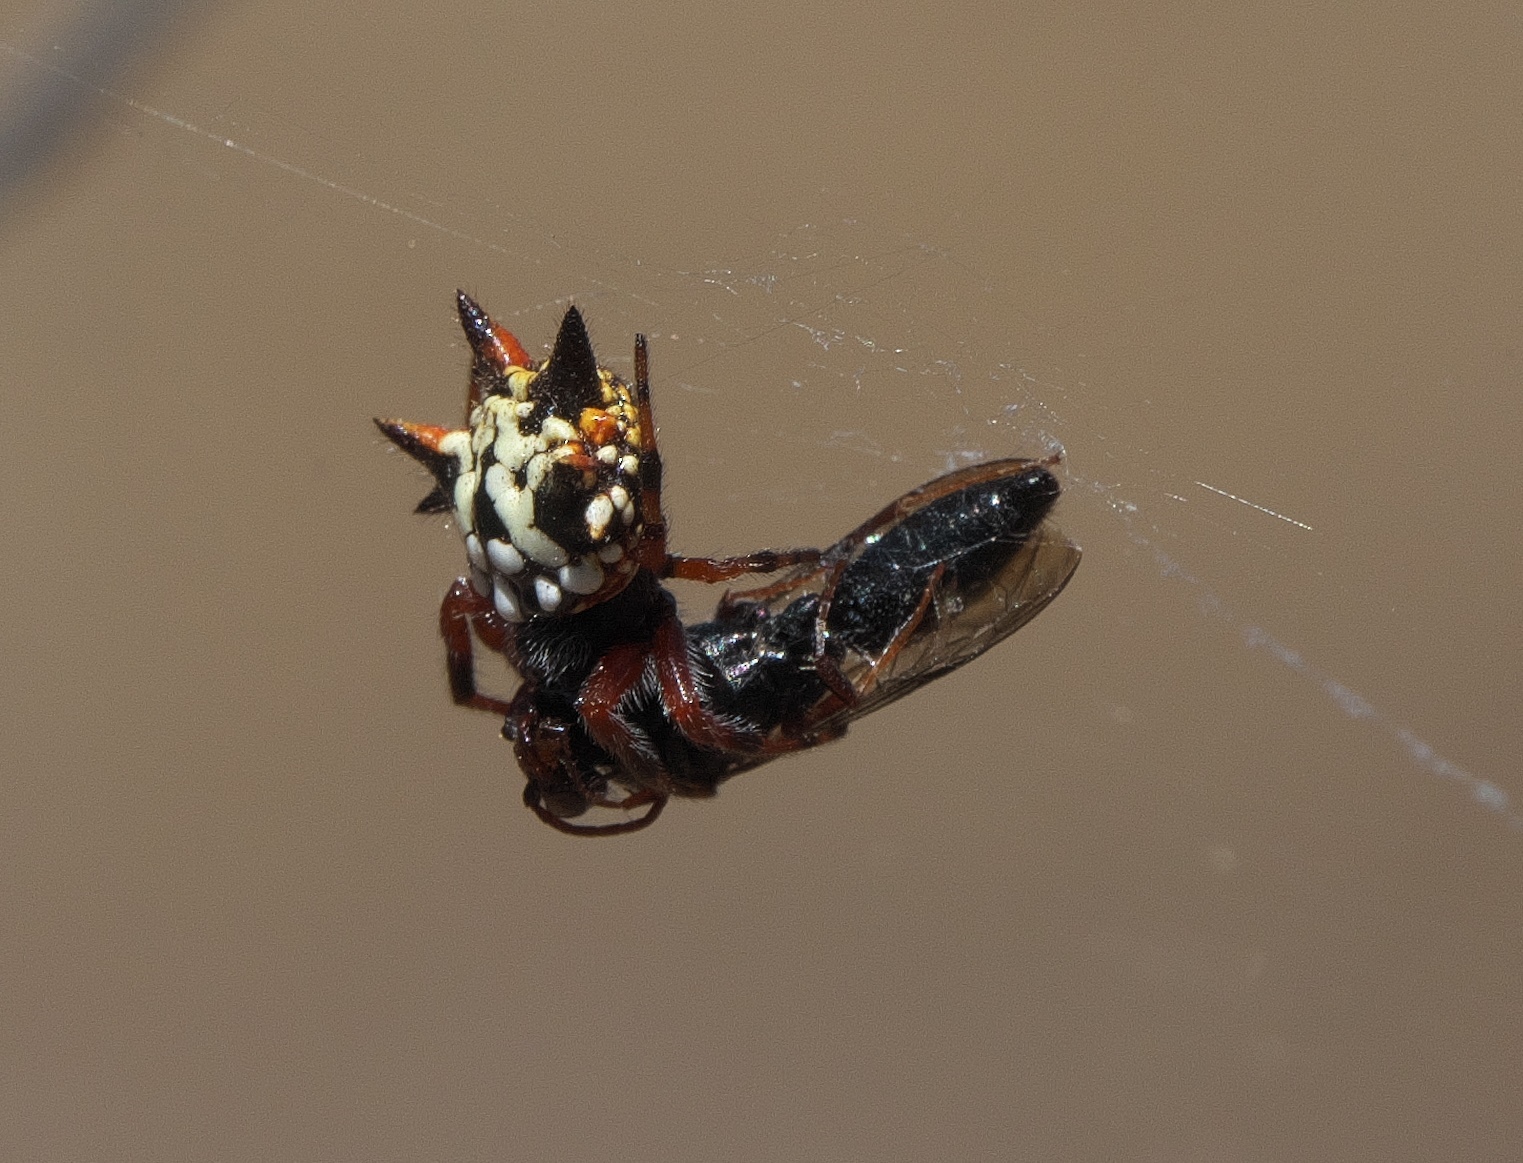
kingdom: Animalia
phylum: Arthropoda
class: Arachnida
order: Araneae
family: Araneidae
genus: Austracantha
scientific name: Austracantha minax
